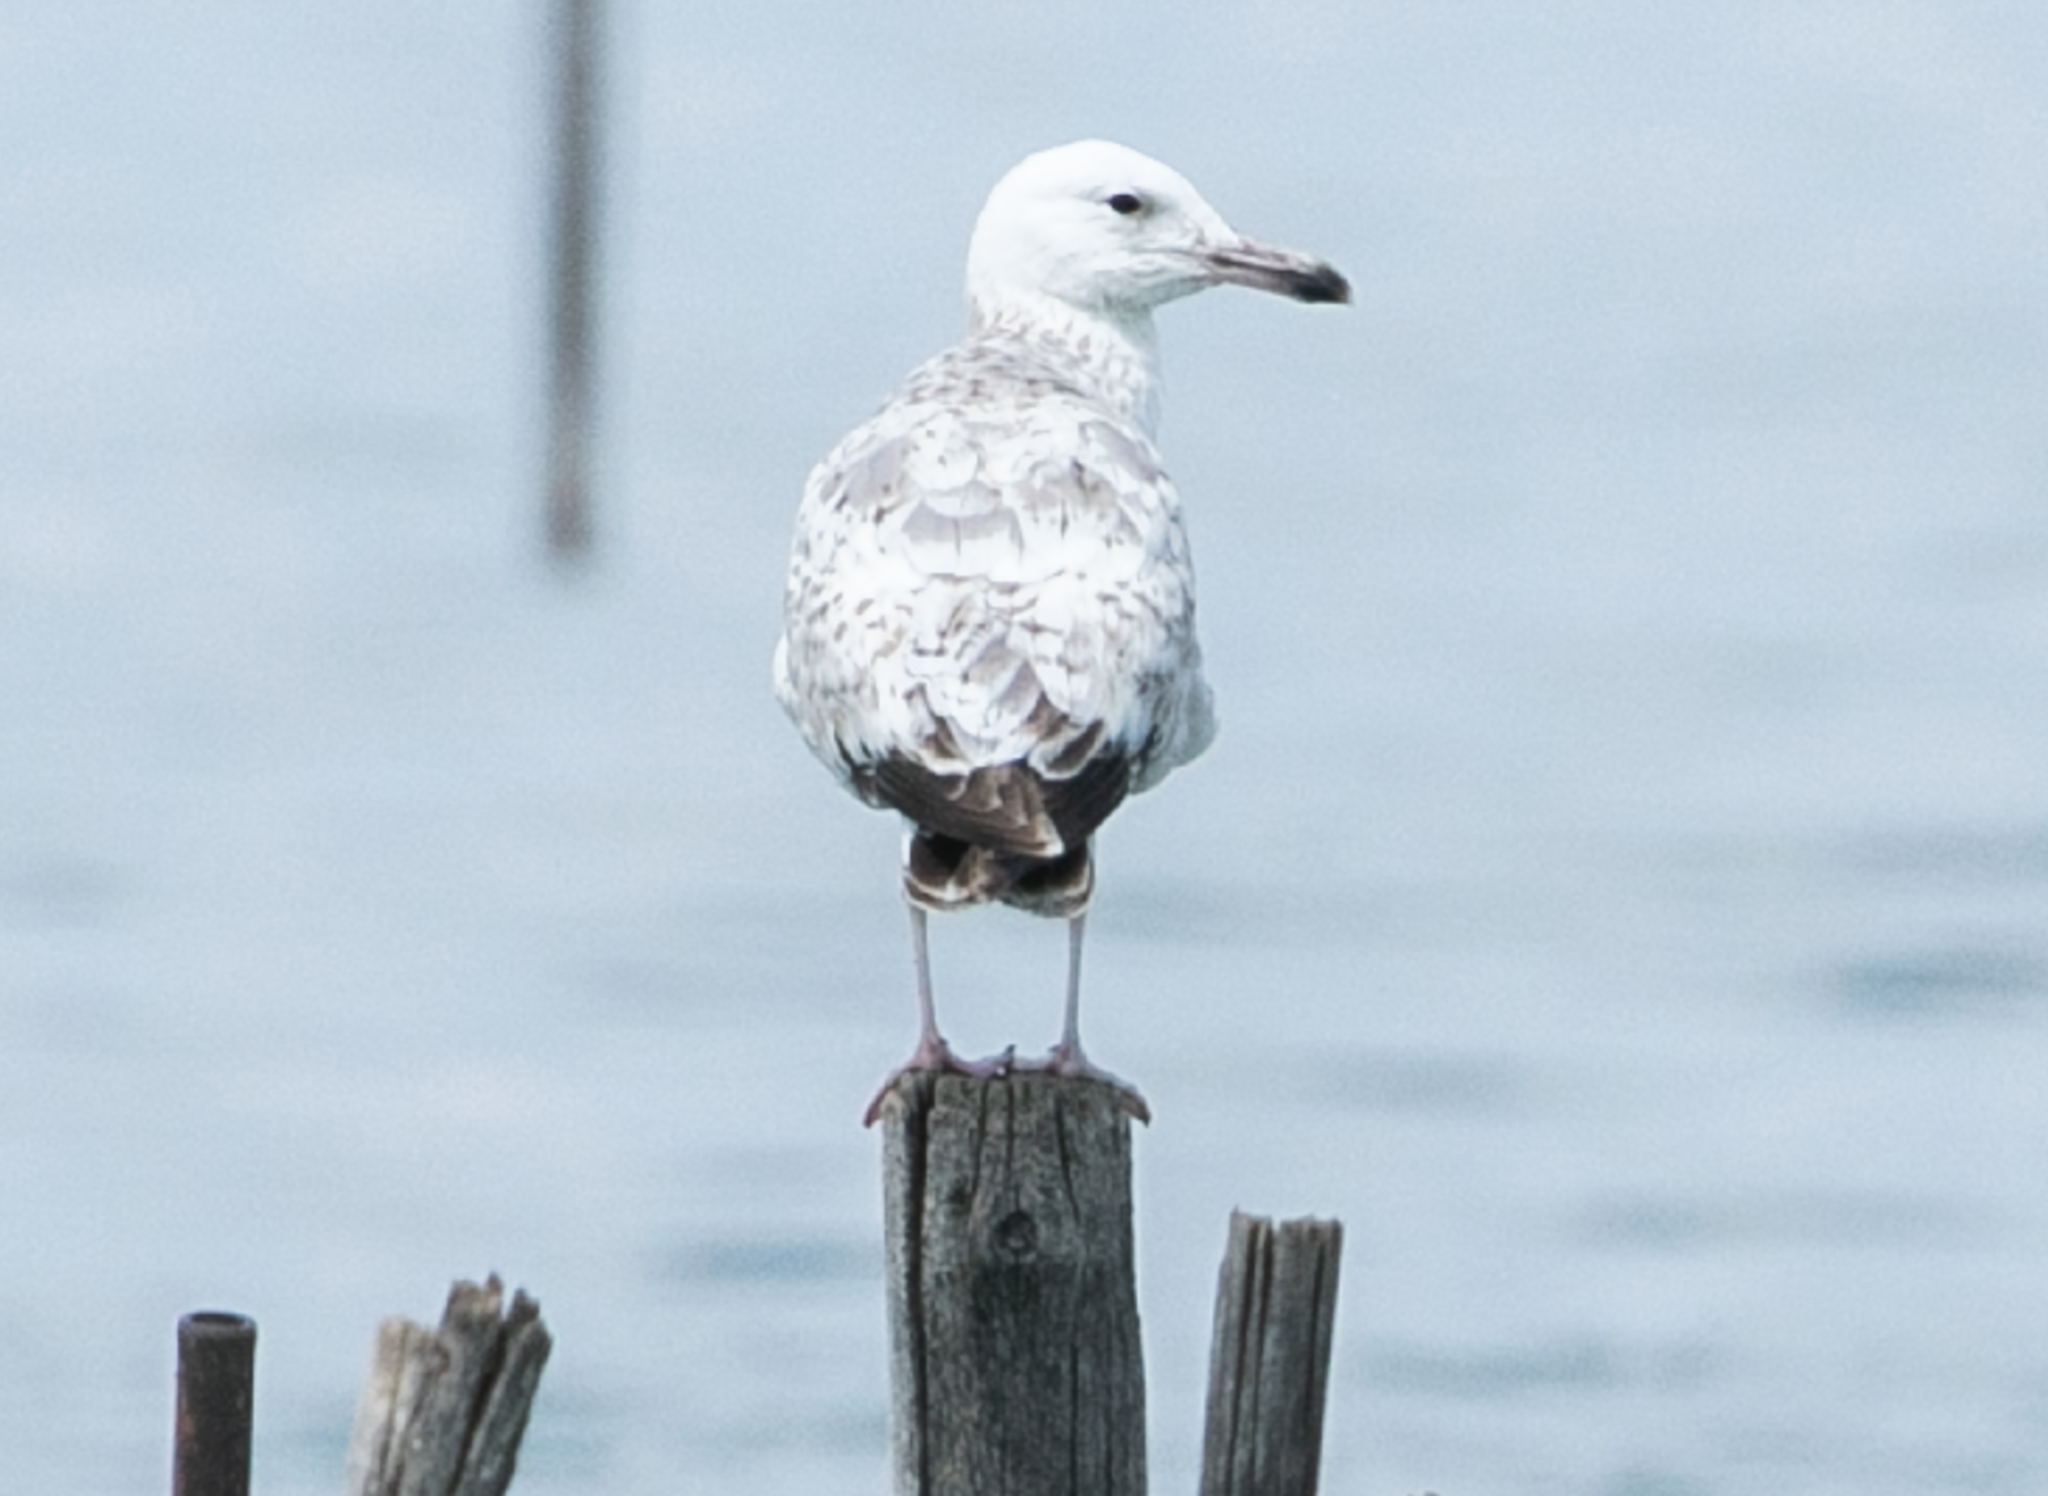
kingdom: Animalia
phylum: Chordata
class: Aves
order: Charadriiformes
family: Laridae
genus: Larus
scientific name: Larus cachinnans
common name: Caspian gull
